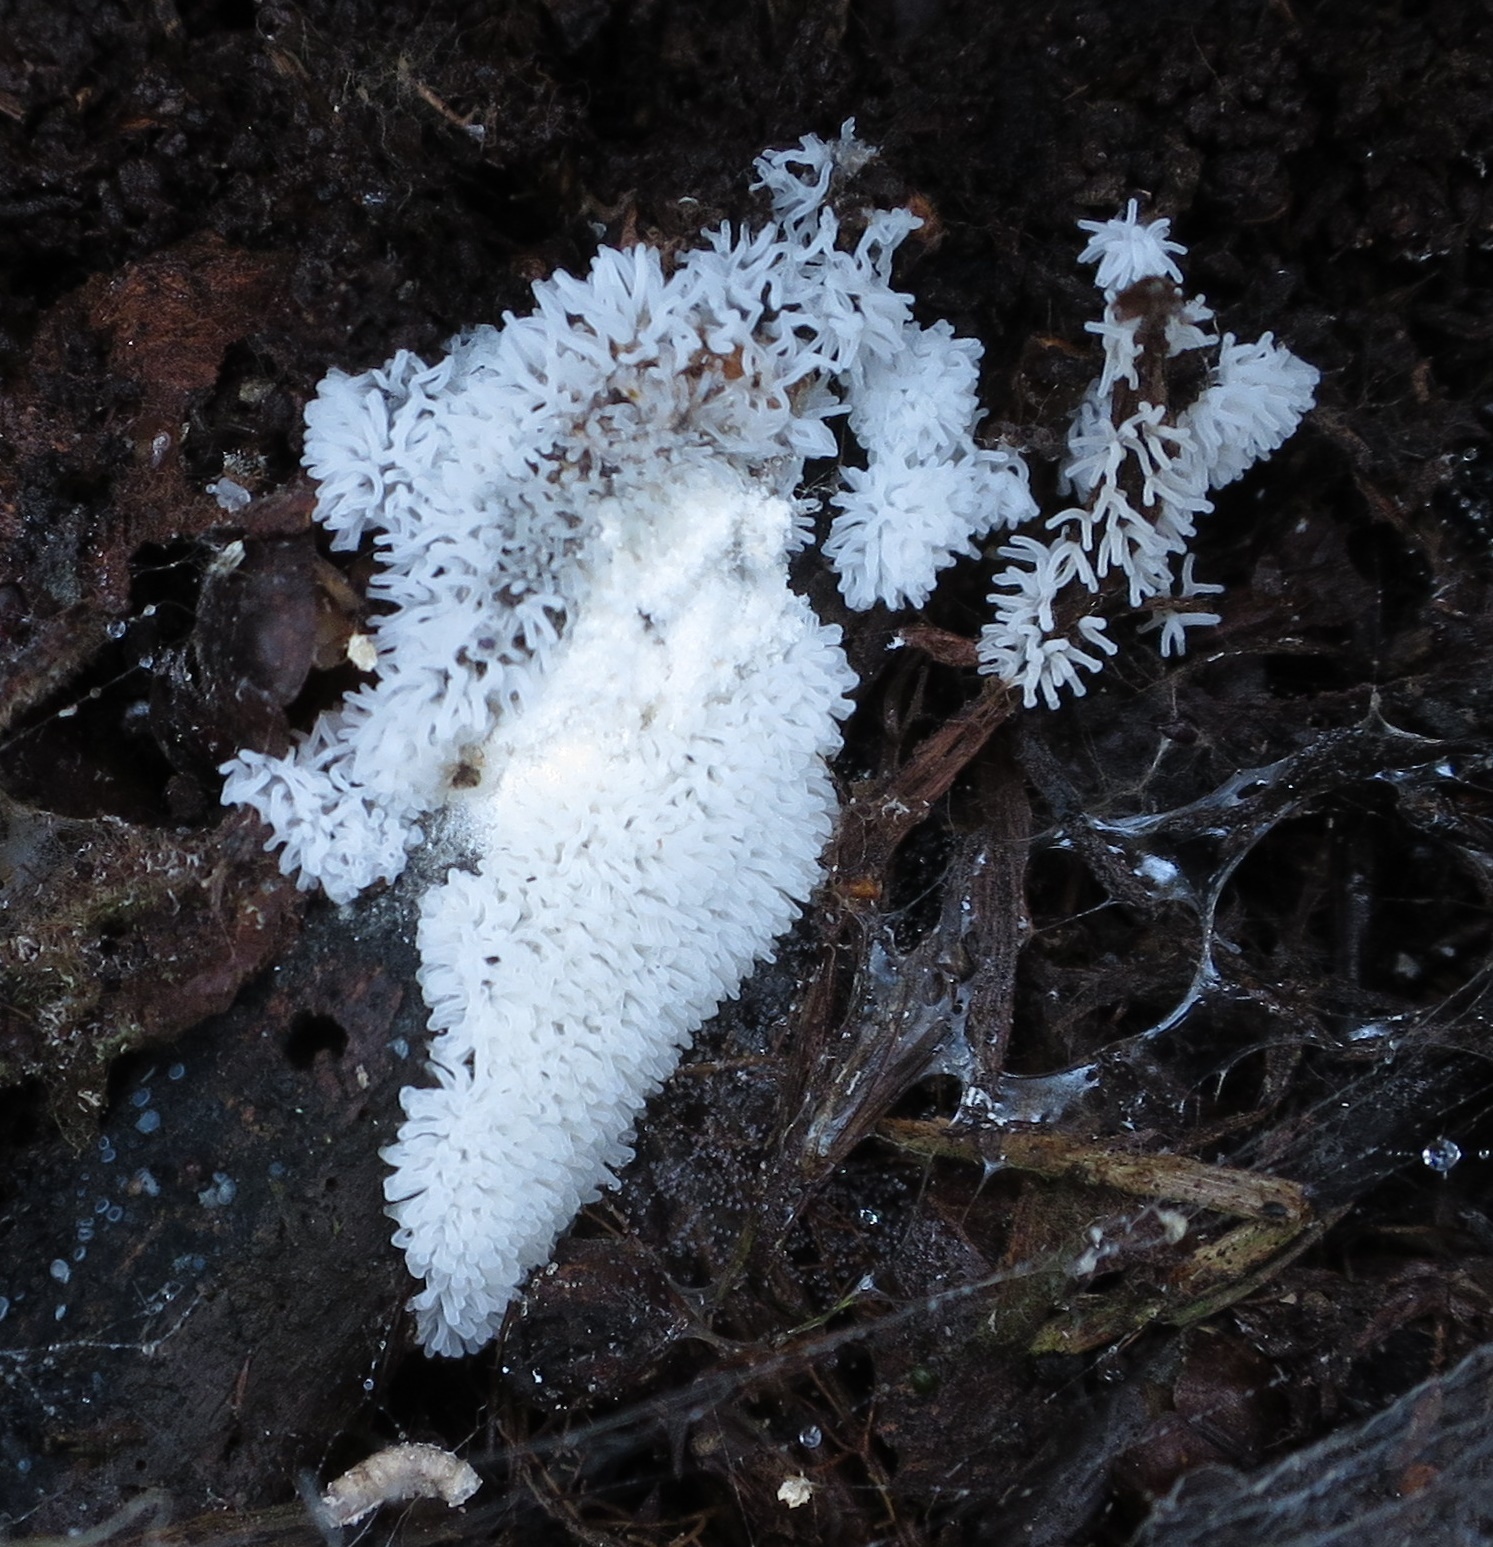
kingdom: Protozoa
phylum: Mycetozoa
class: Protosteliomycetes
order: Ceratiomyxales
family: Ceratiomyxaceae
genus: Ceratiomyxa
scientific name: Ceratiomyxa fruticulosa
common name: Honeycomb coral slime mold
